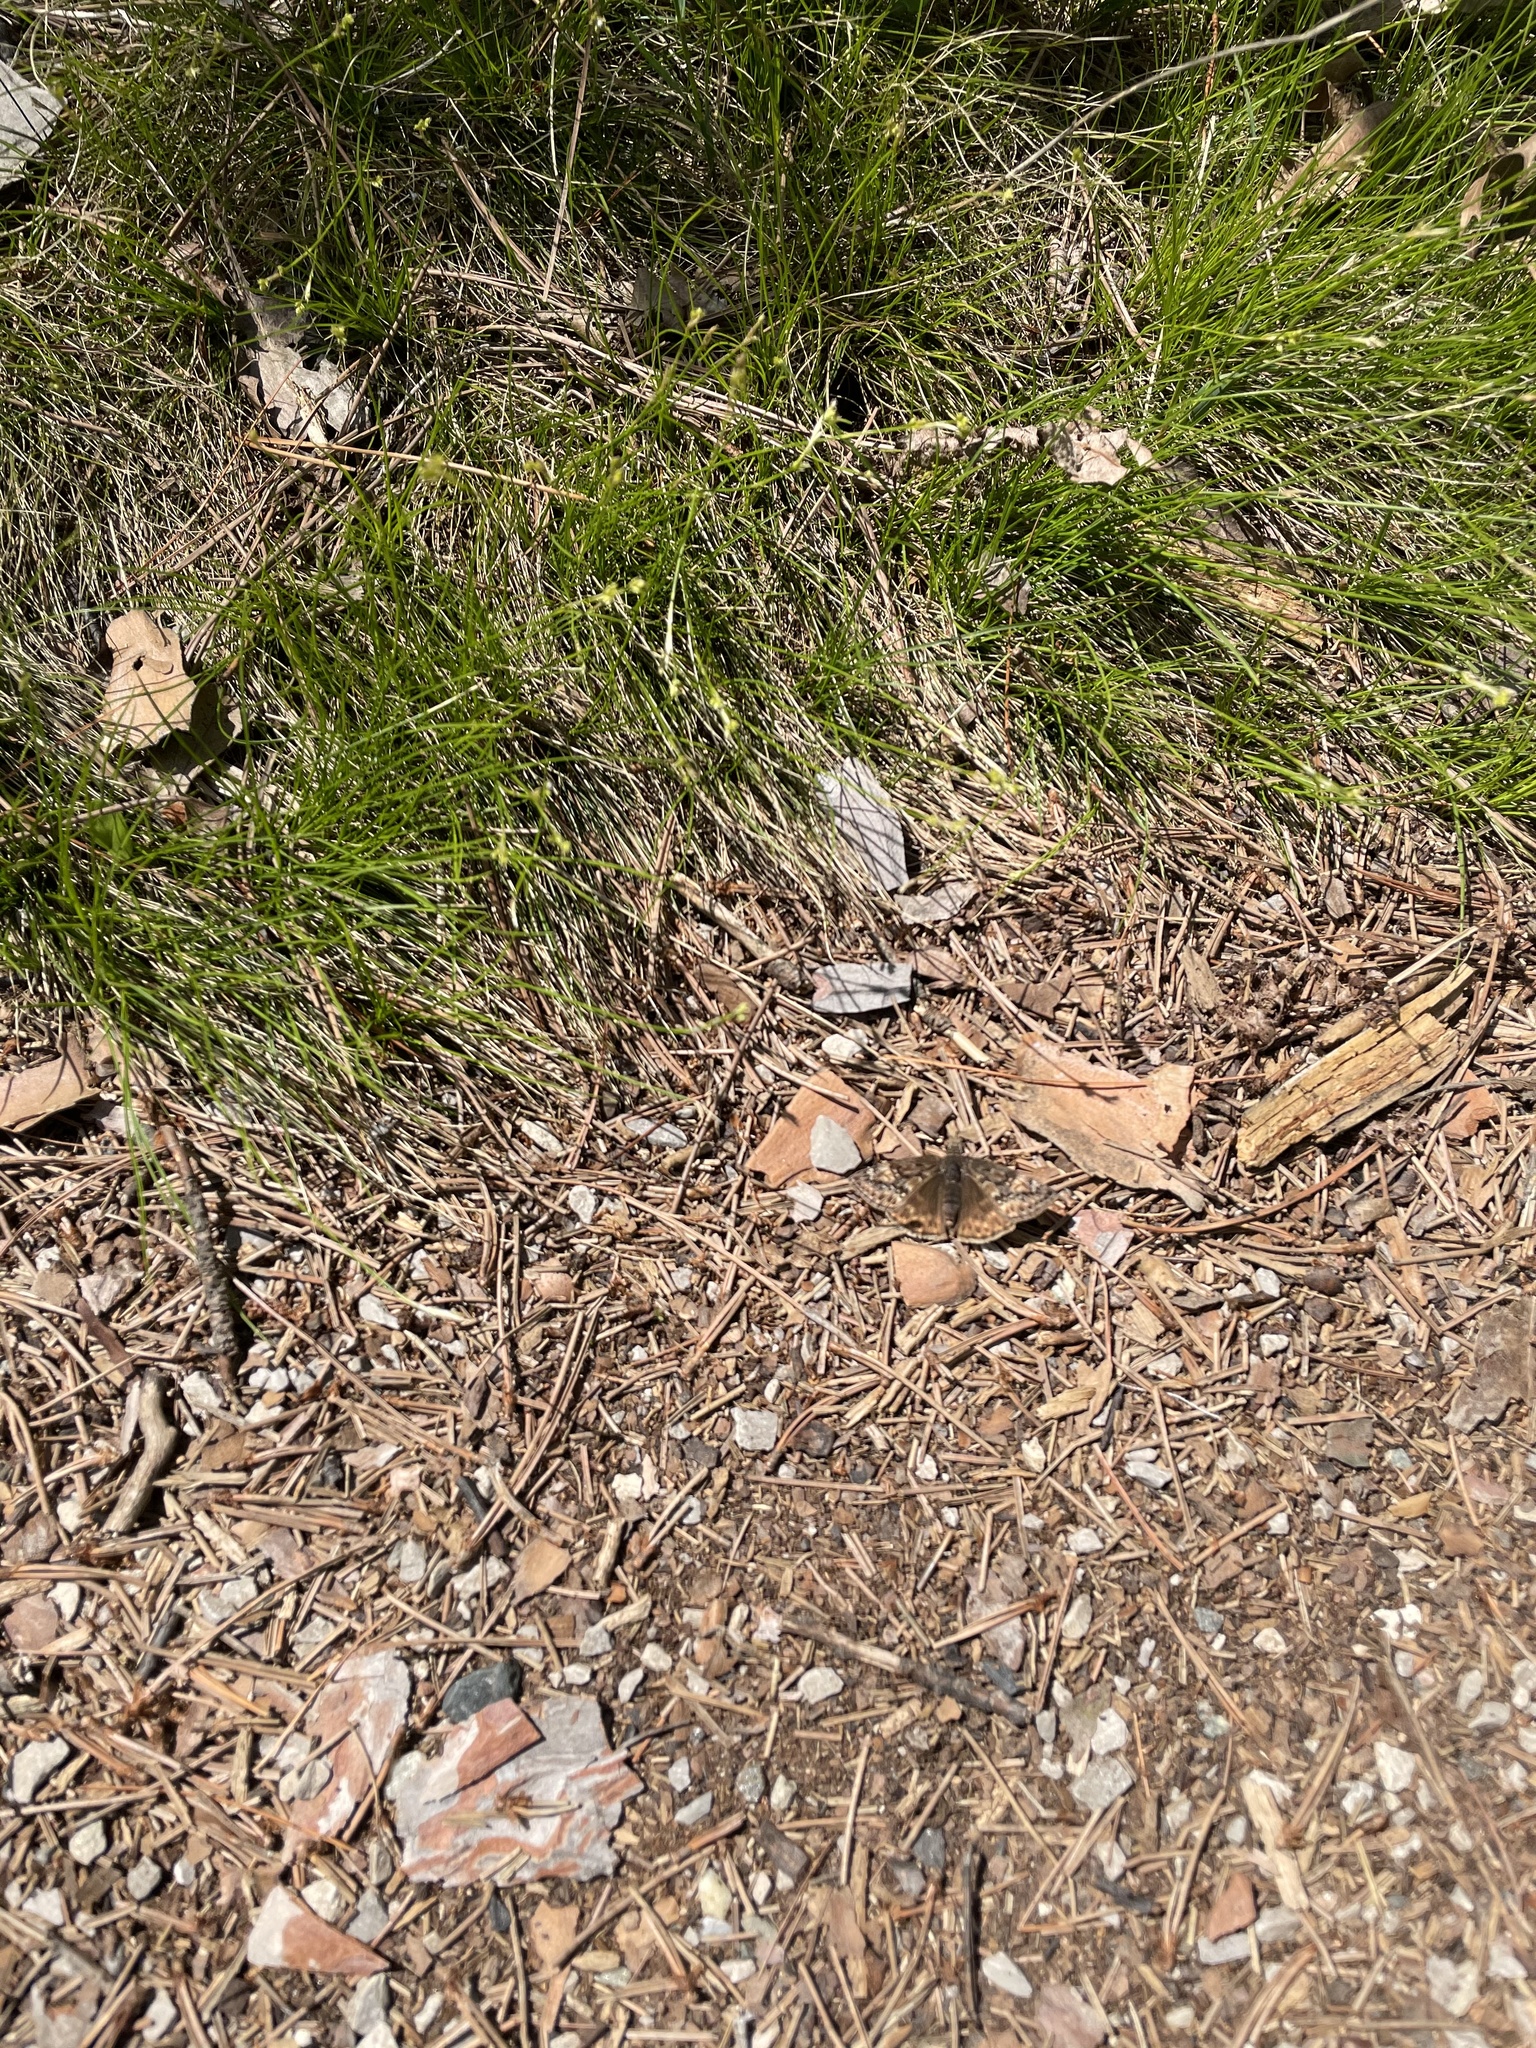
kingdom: Animalia
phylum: Arthropoda
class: Insecta
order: Lepidoptera
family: Hesperiidae
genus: Erynnis
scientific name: Erynnis juvenalis
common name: Juvenal's duskywing
